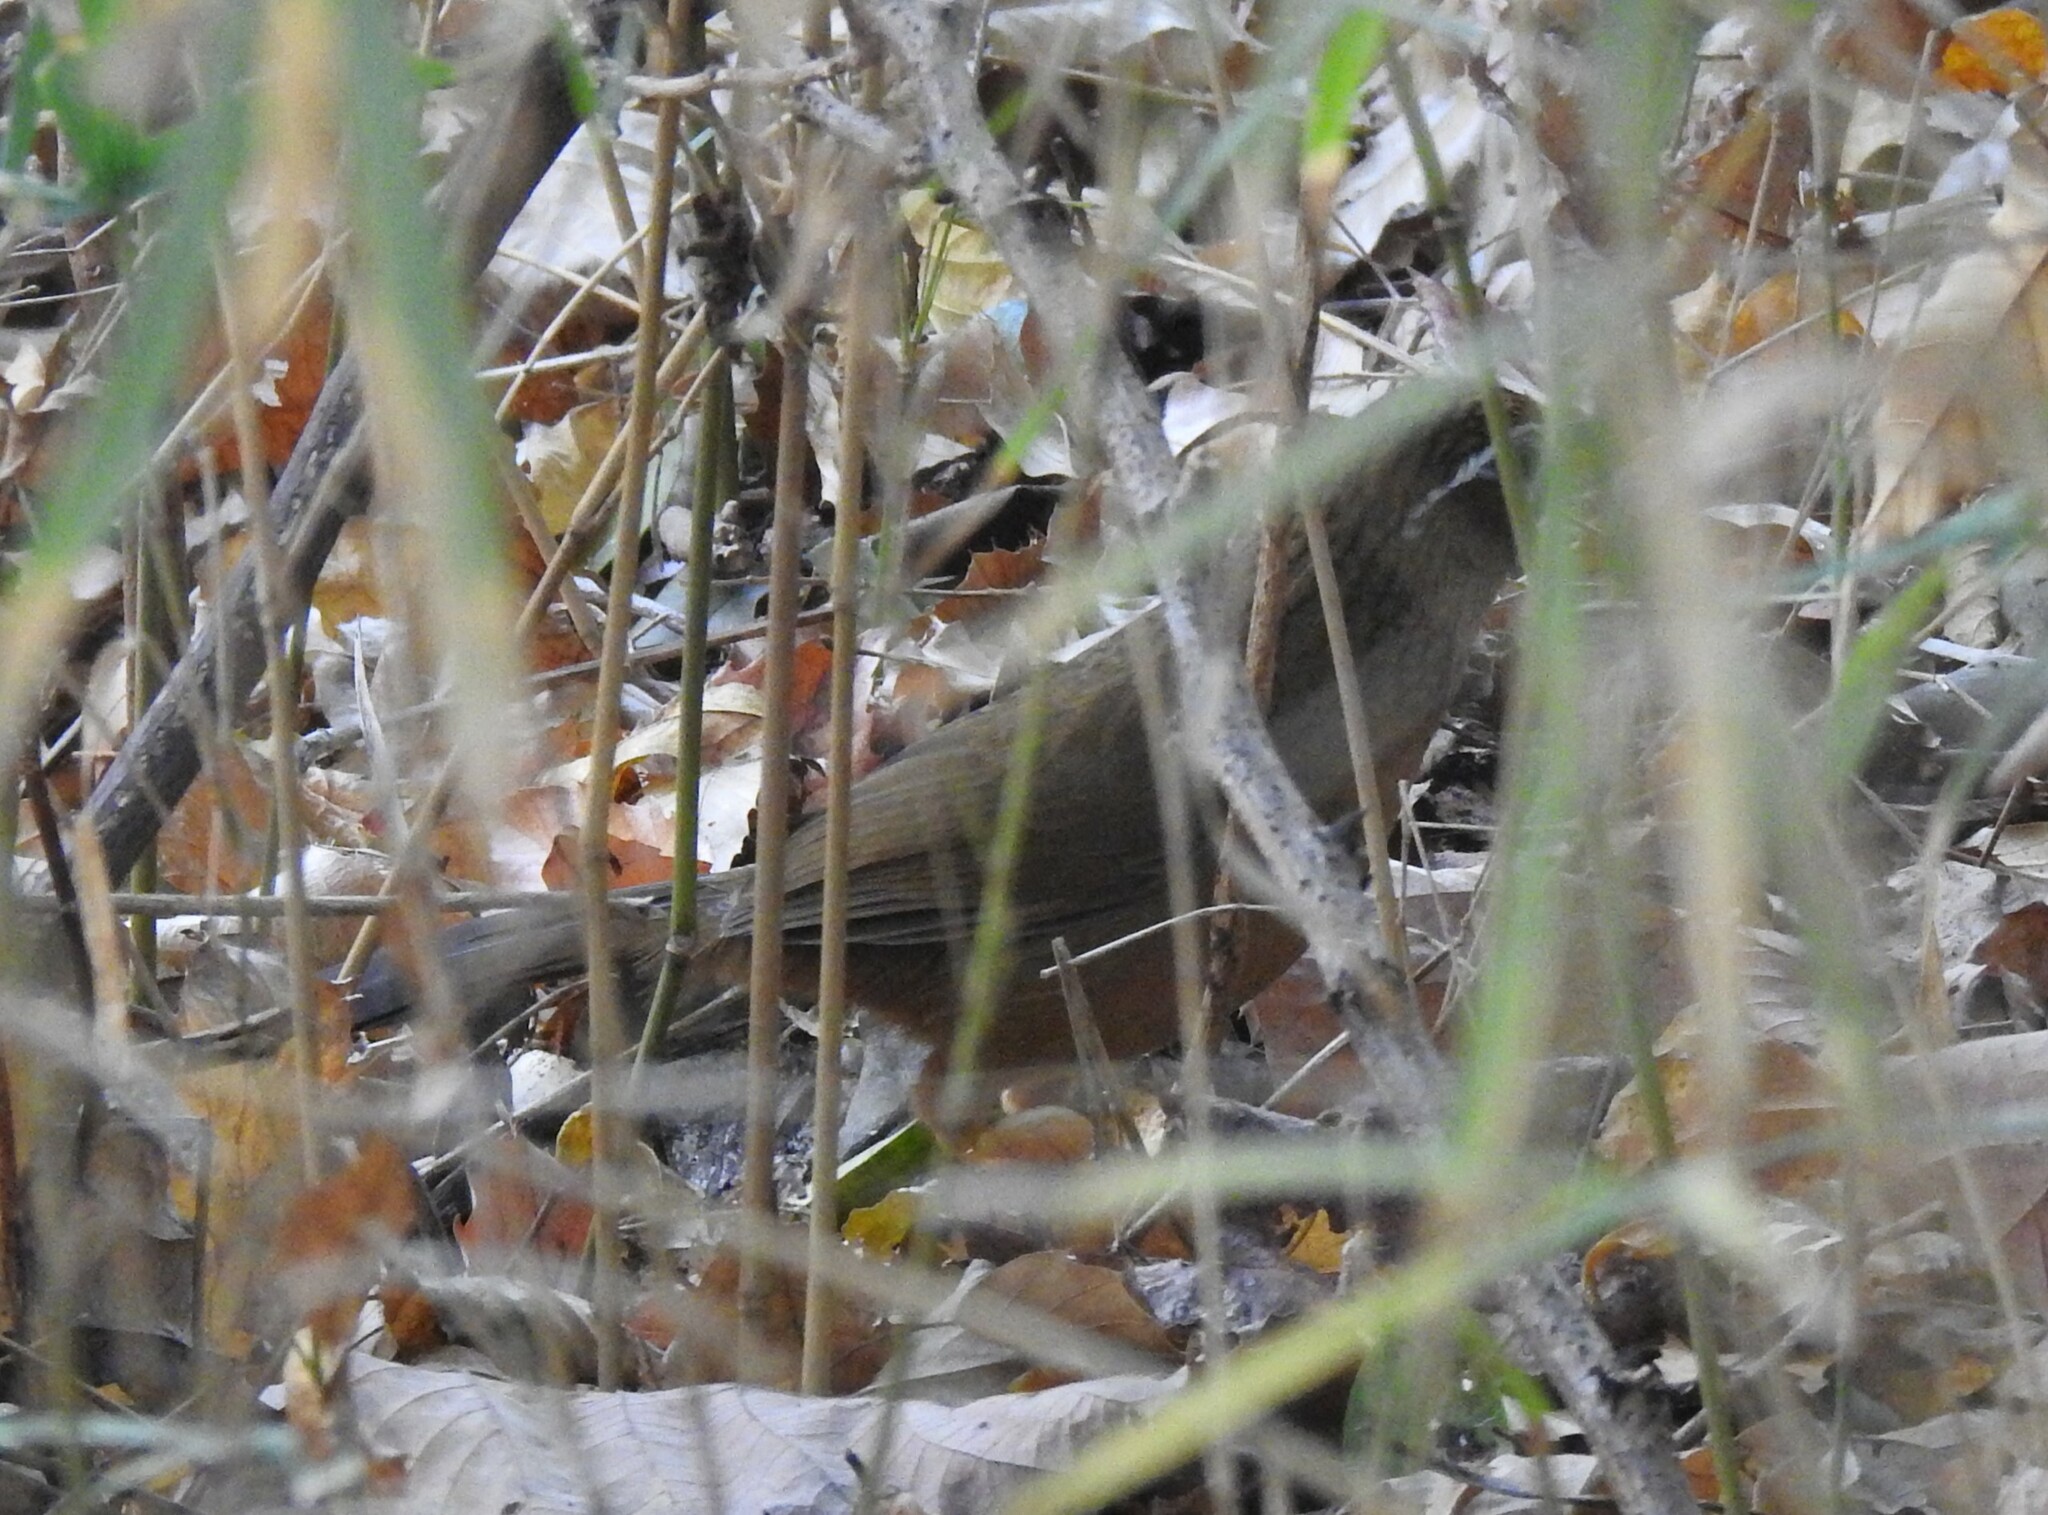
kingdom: Animalia
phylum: Chordata
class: Aves
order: Passeriformes
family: Leiothrichidae
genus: Garrulax
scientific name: Garrulax canorus
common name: Chinese hwamei
